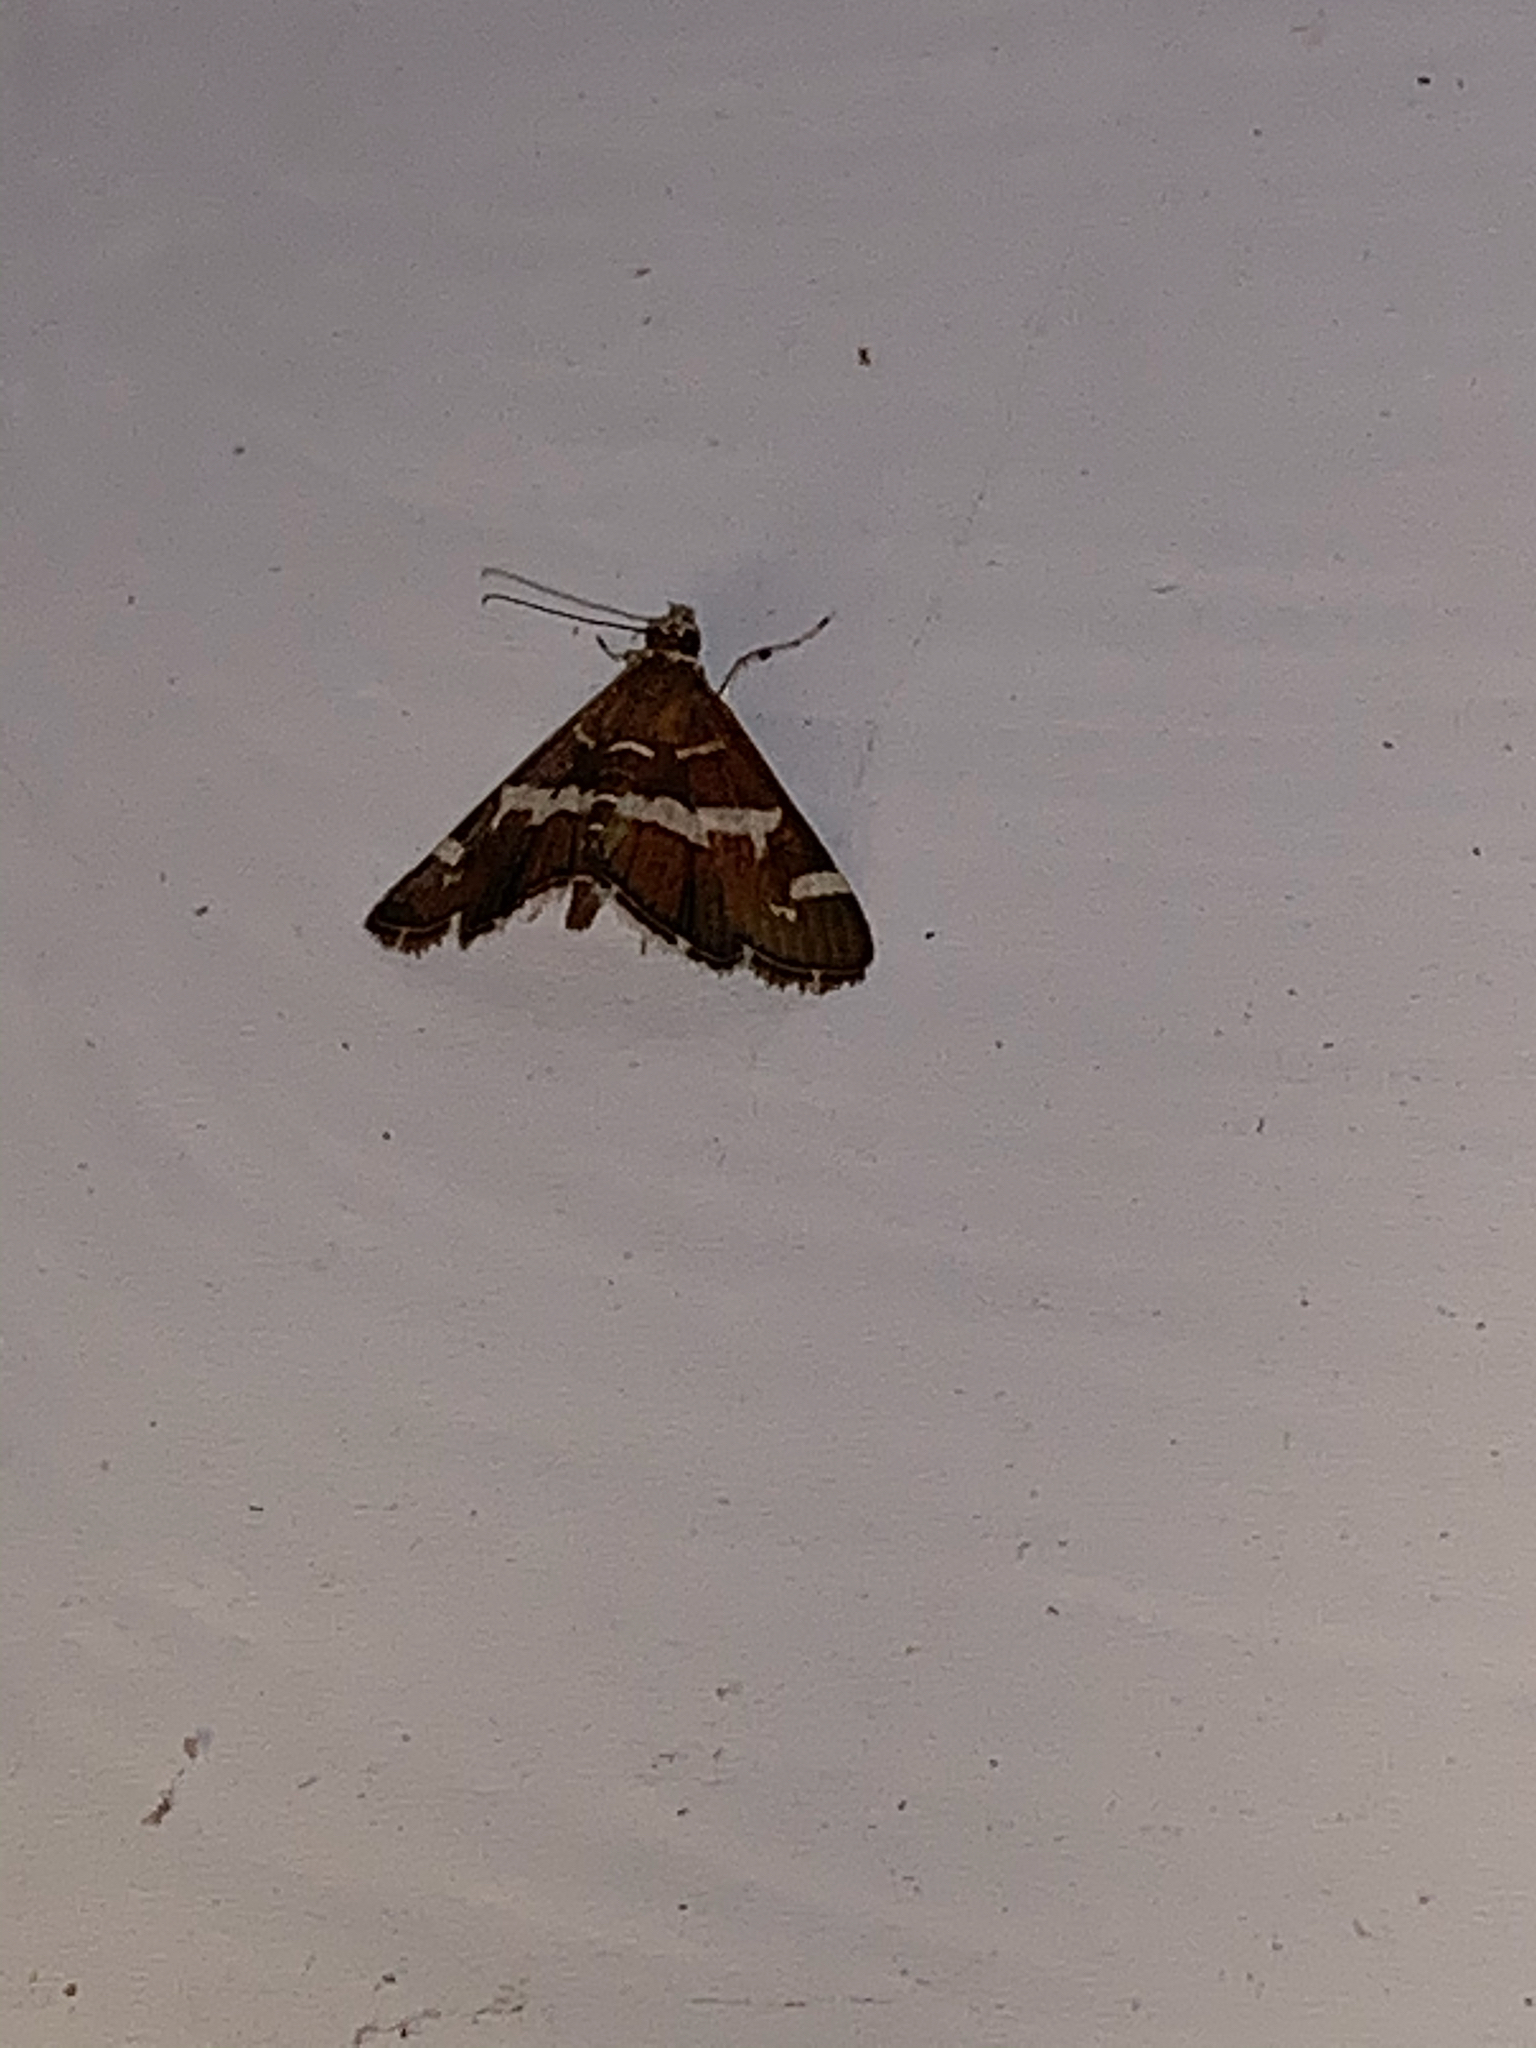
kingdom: Animalia
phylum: Arthropoda
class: Insecta
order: Lepidoptera
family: Crambidae
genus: Spoladea
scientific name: Spoladea recurvalis
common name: Beet webworm moth
